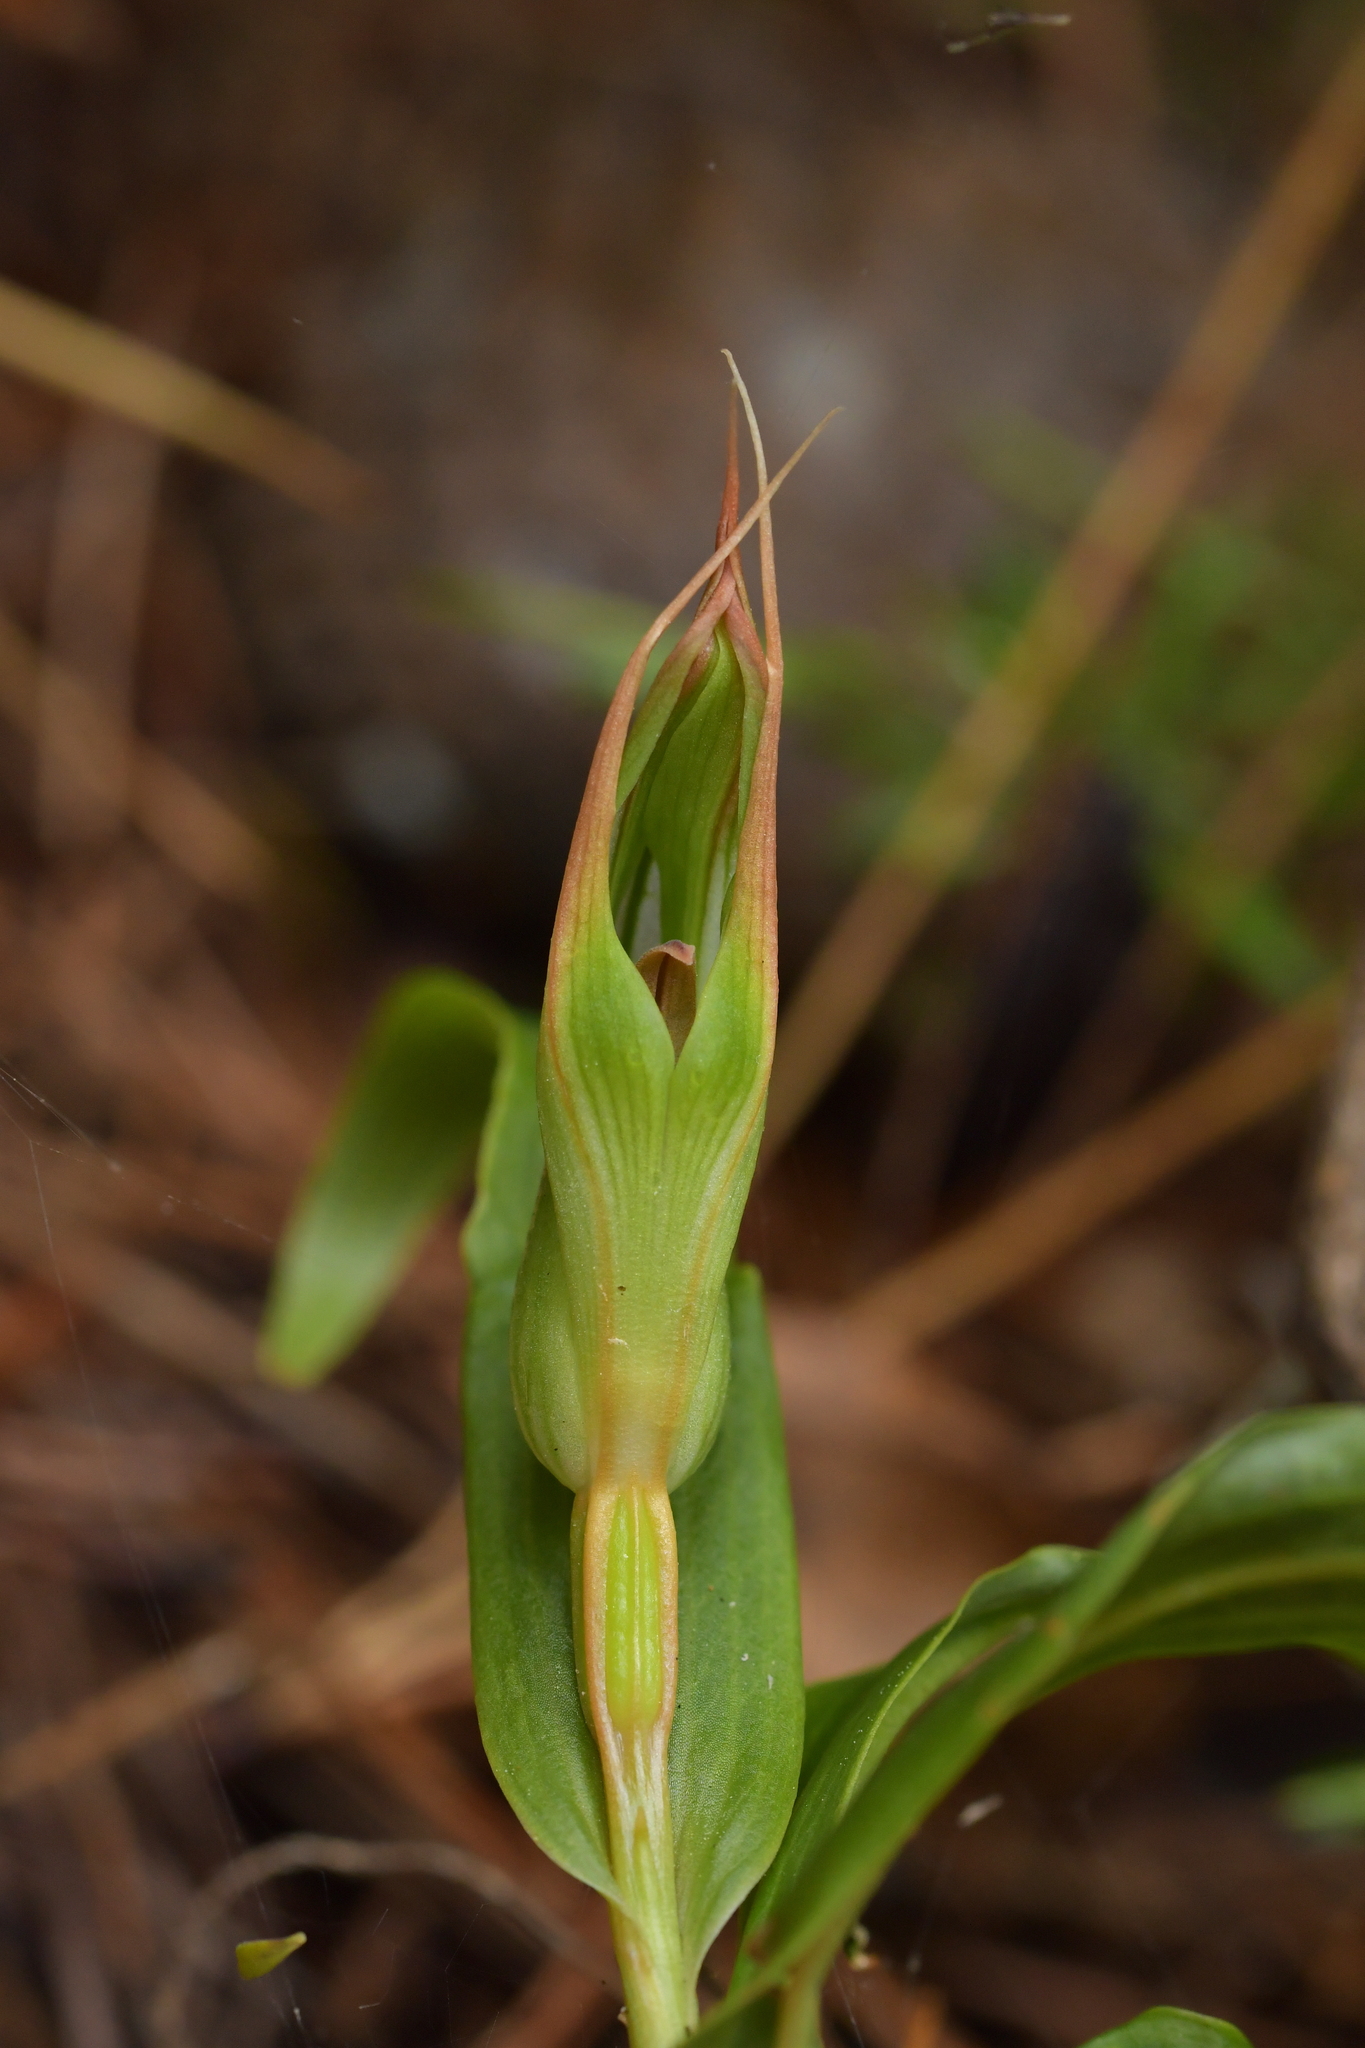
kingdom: Plantae
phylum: Tracheophyta
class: Liliopsida
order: Asparagales
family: Orchidaceae
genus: Pterostylis
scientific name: Pterostylis cardiostigma
